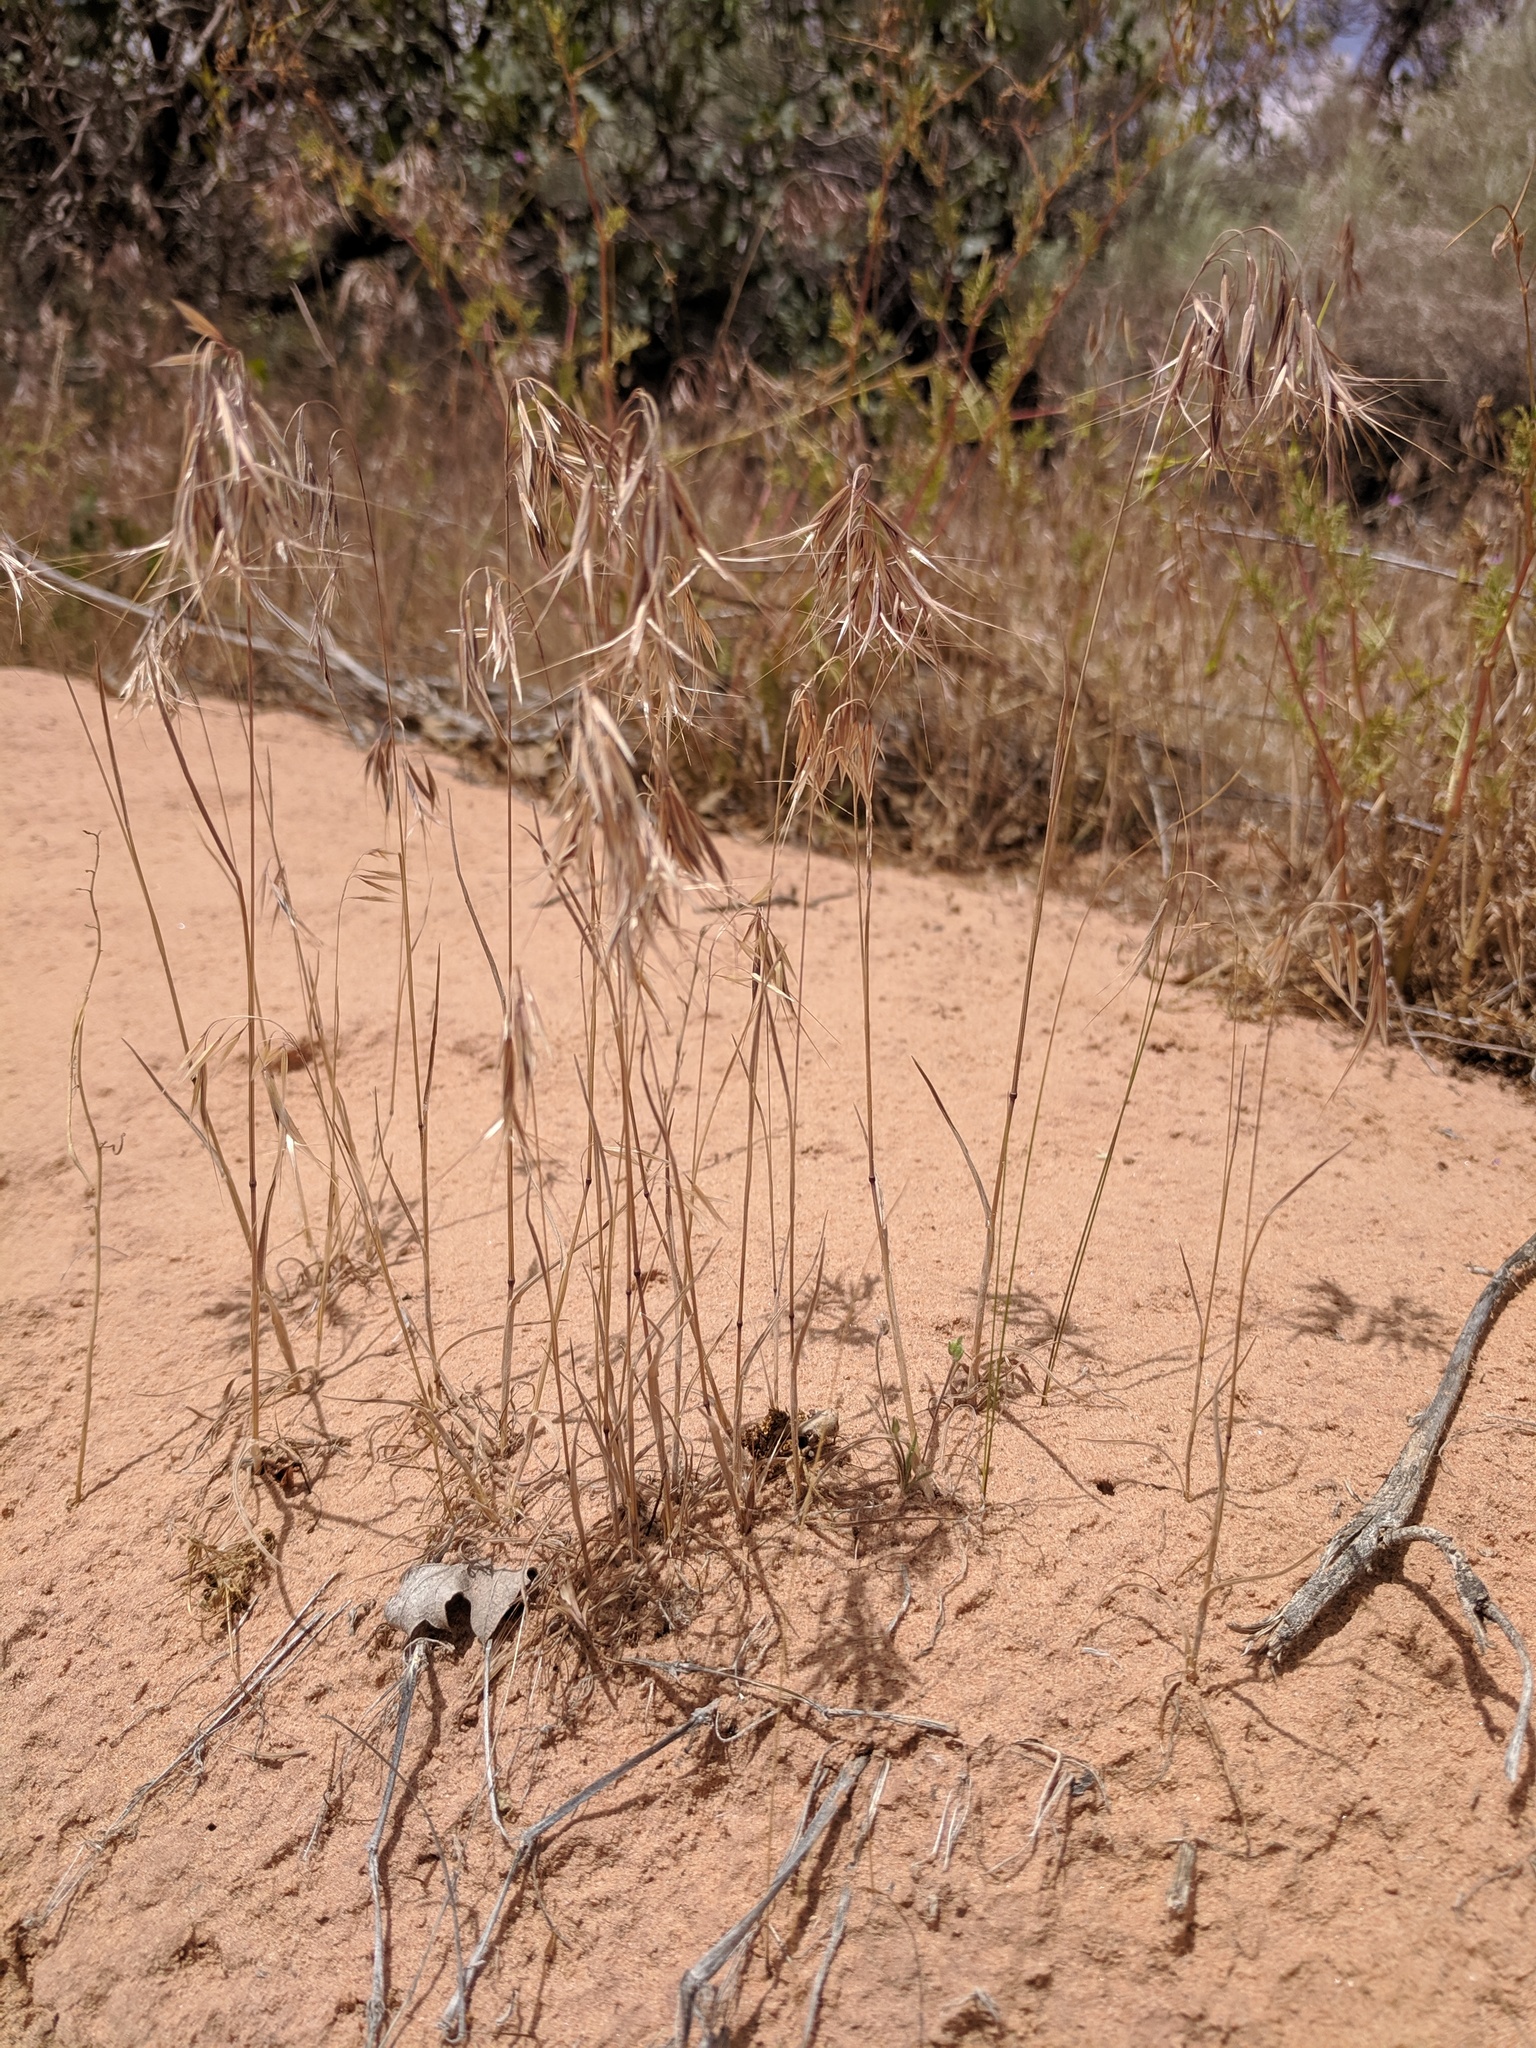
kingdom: Plantae
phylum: Tracheophyta
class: Liliopsida
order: Poales
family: Poaceae
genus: Bromus
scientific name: Bromus tectorum
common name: Cheatgrass
